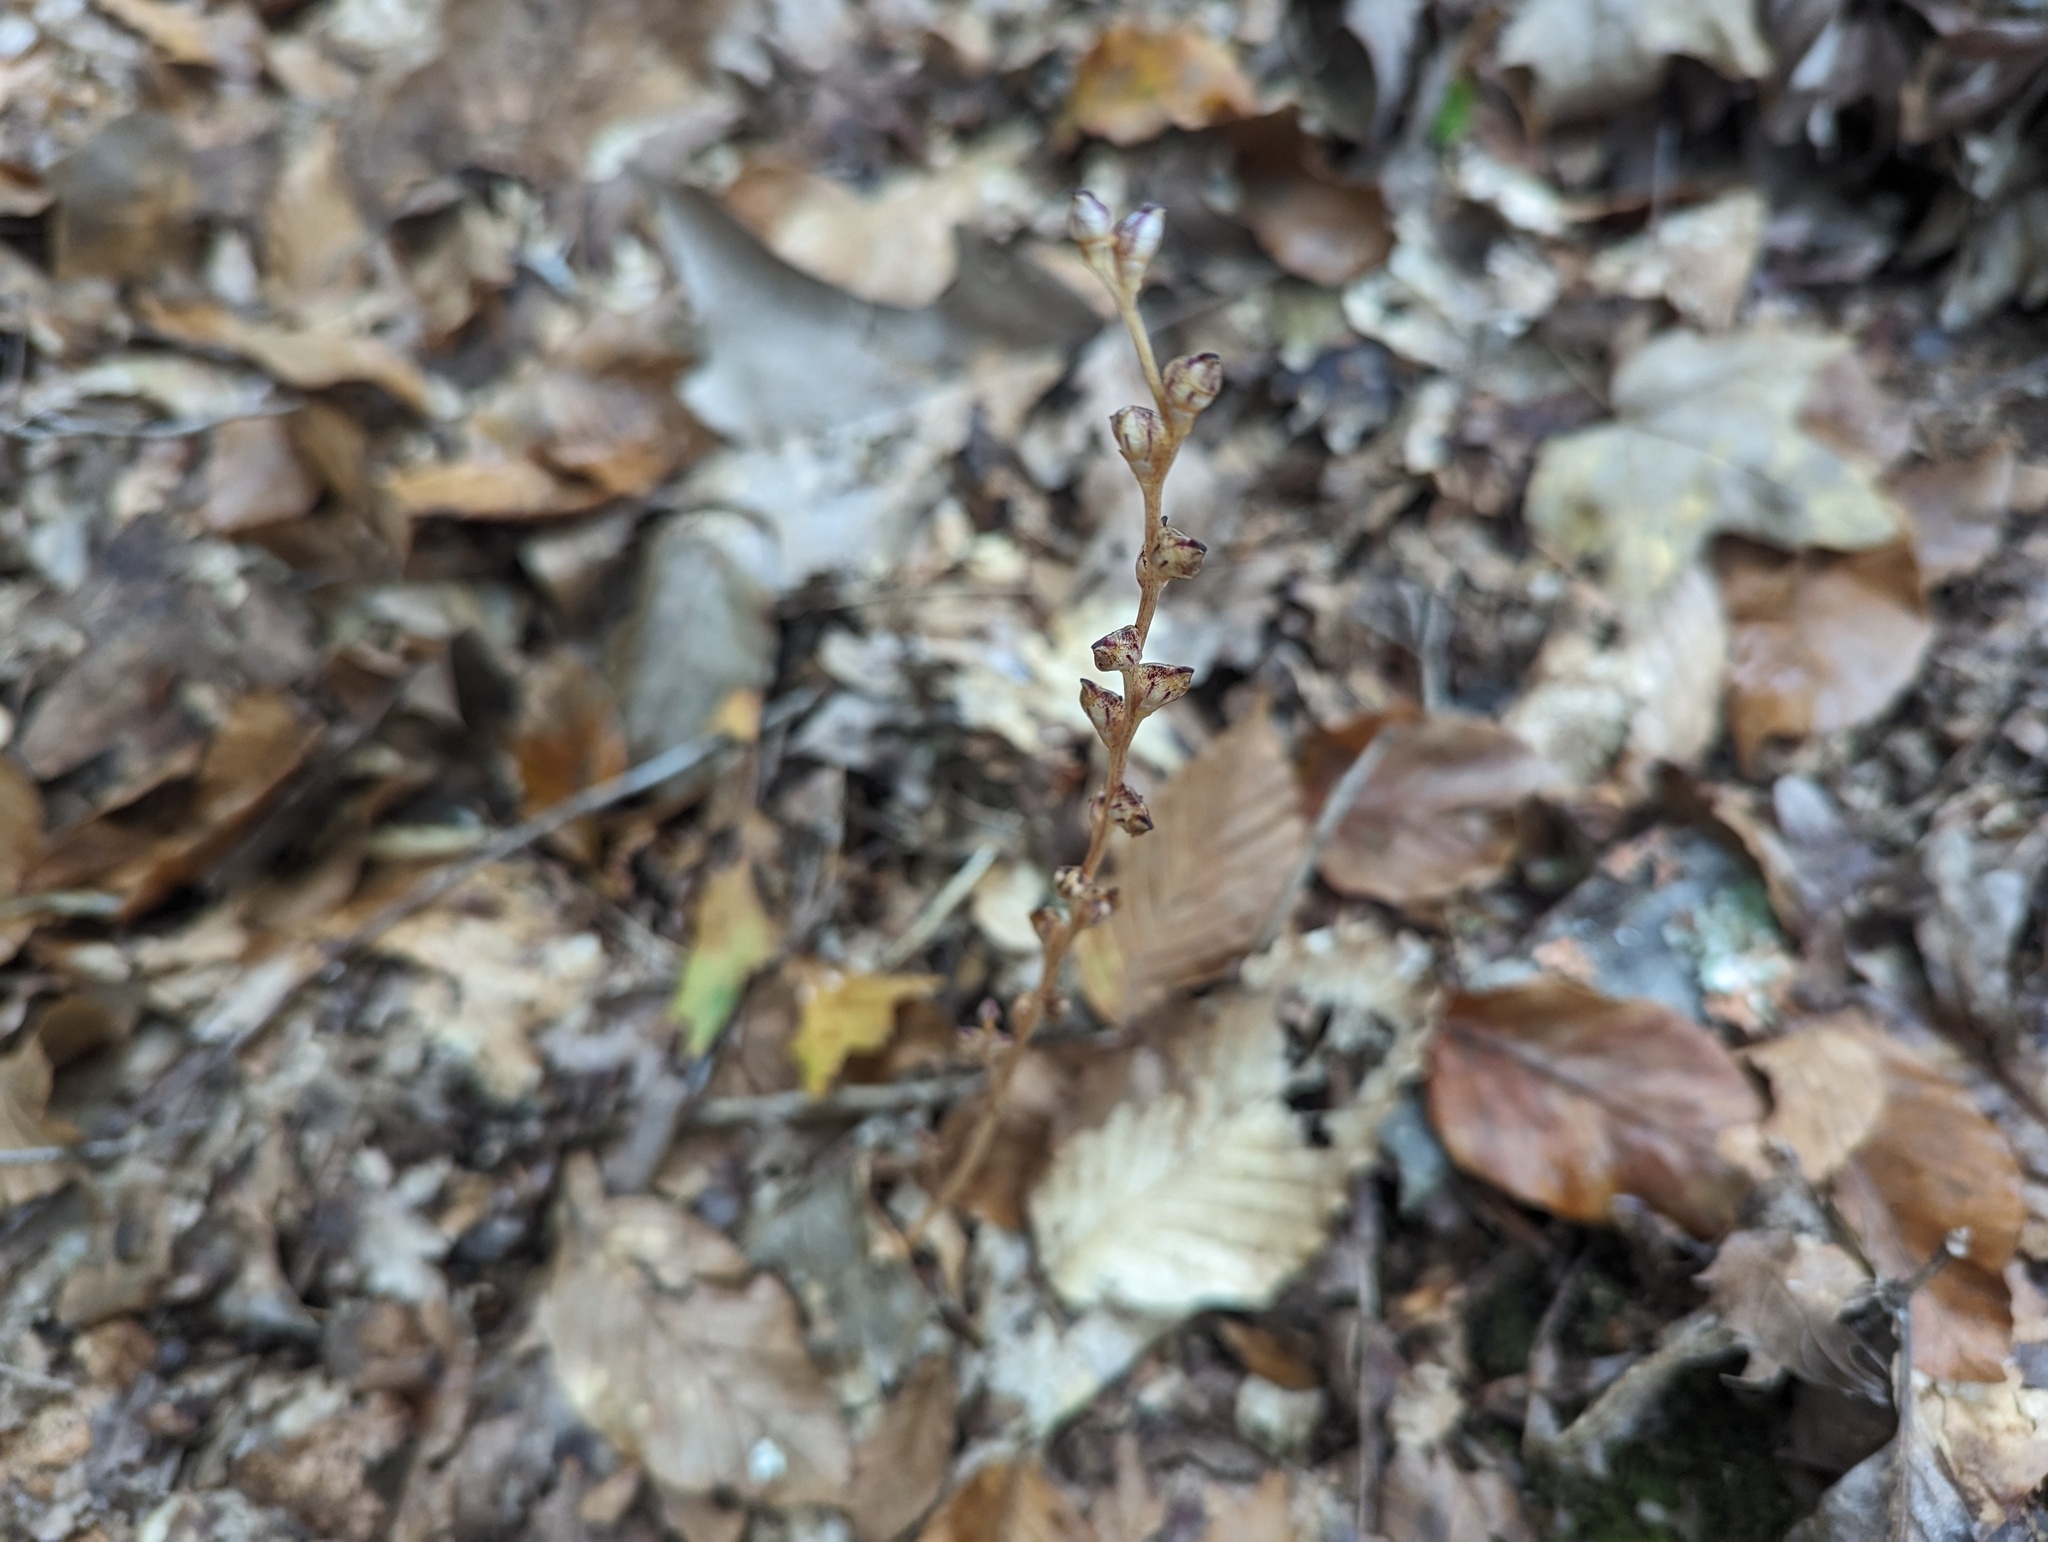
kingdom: Plantae
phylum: Tracheophyta
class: Magnoliopsida
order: Lamiales
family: Orobanchaceae
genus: Epifagus
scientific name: Epifagus virginiana
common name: Beechdrops
